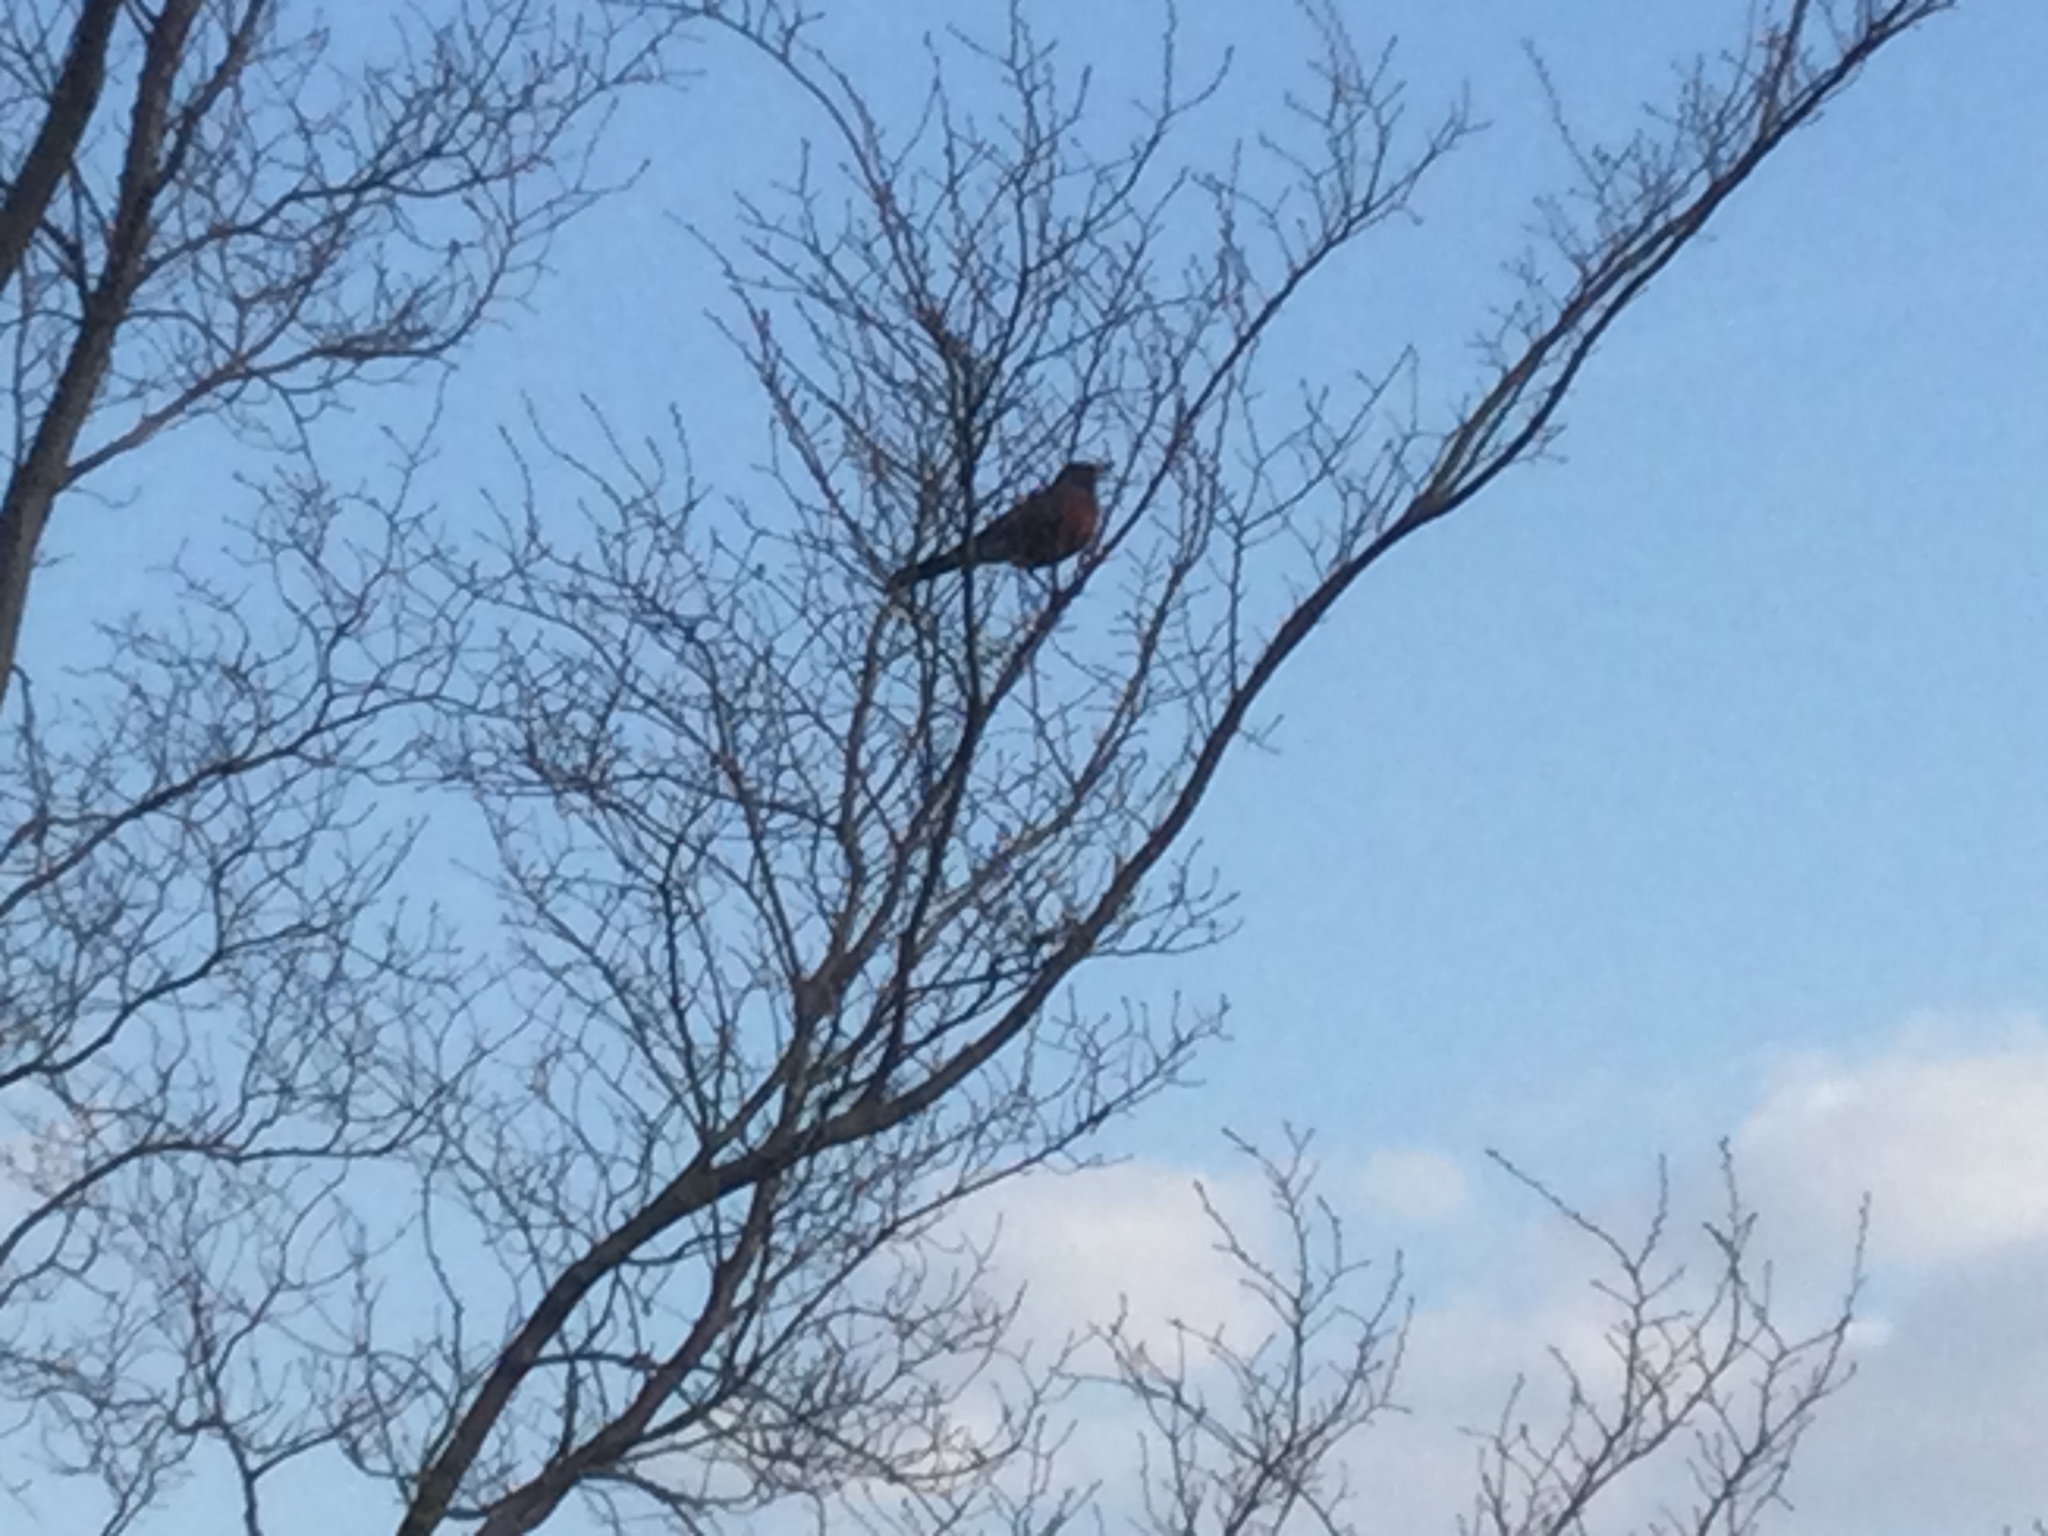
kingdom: Animalia
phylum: Chordata
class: Aves
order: Passeriformes
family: Turdidae
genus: Turdus
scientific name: Turdus migratorius
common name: American robin
